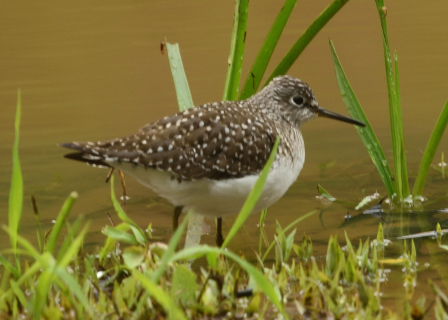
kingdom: Animalia
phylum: Chordata
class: Aves
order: Charadriiformes
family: Scolopacidae
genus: Tringa
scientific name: Tringa solitaria
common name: Solitary sandpiper
